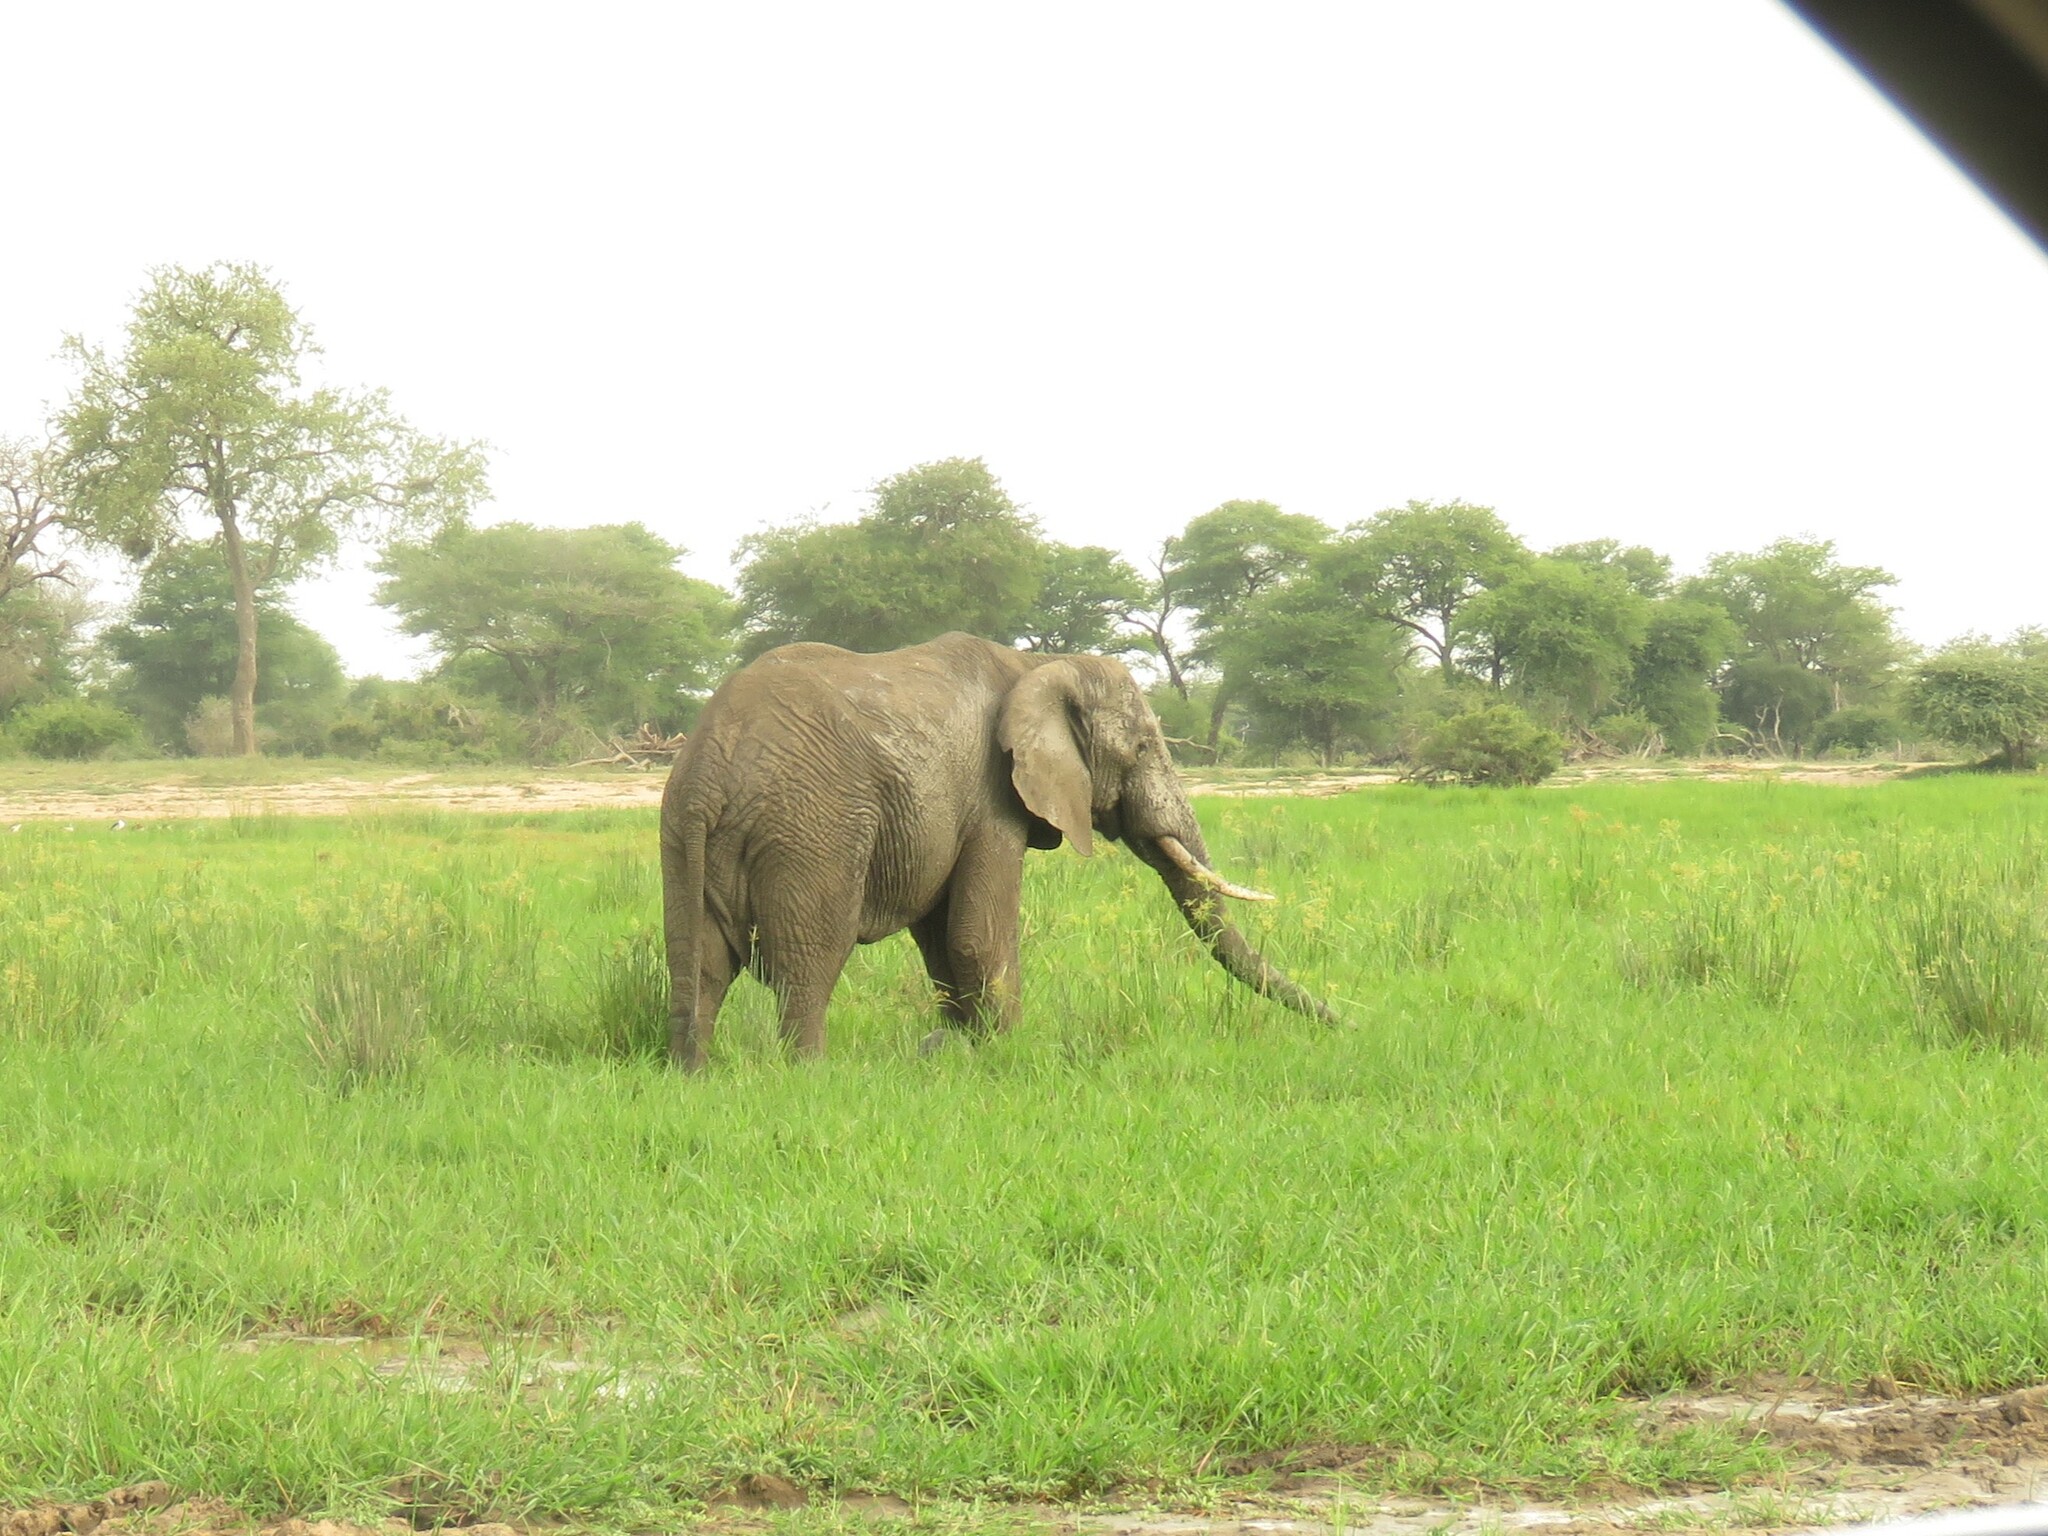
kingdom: Animalia
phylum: Chordata
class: Mammalia
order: Proboscidea
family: Elephantidae
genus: Loxodonta
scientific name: Loxodonta africana
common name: African elephant
